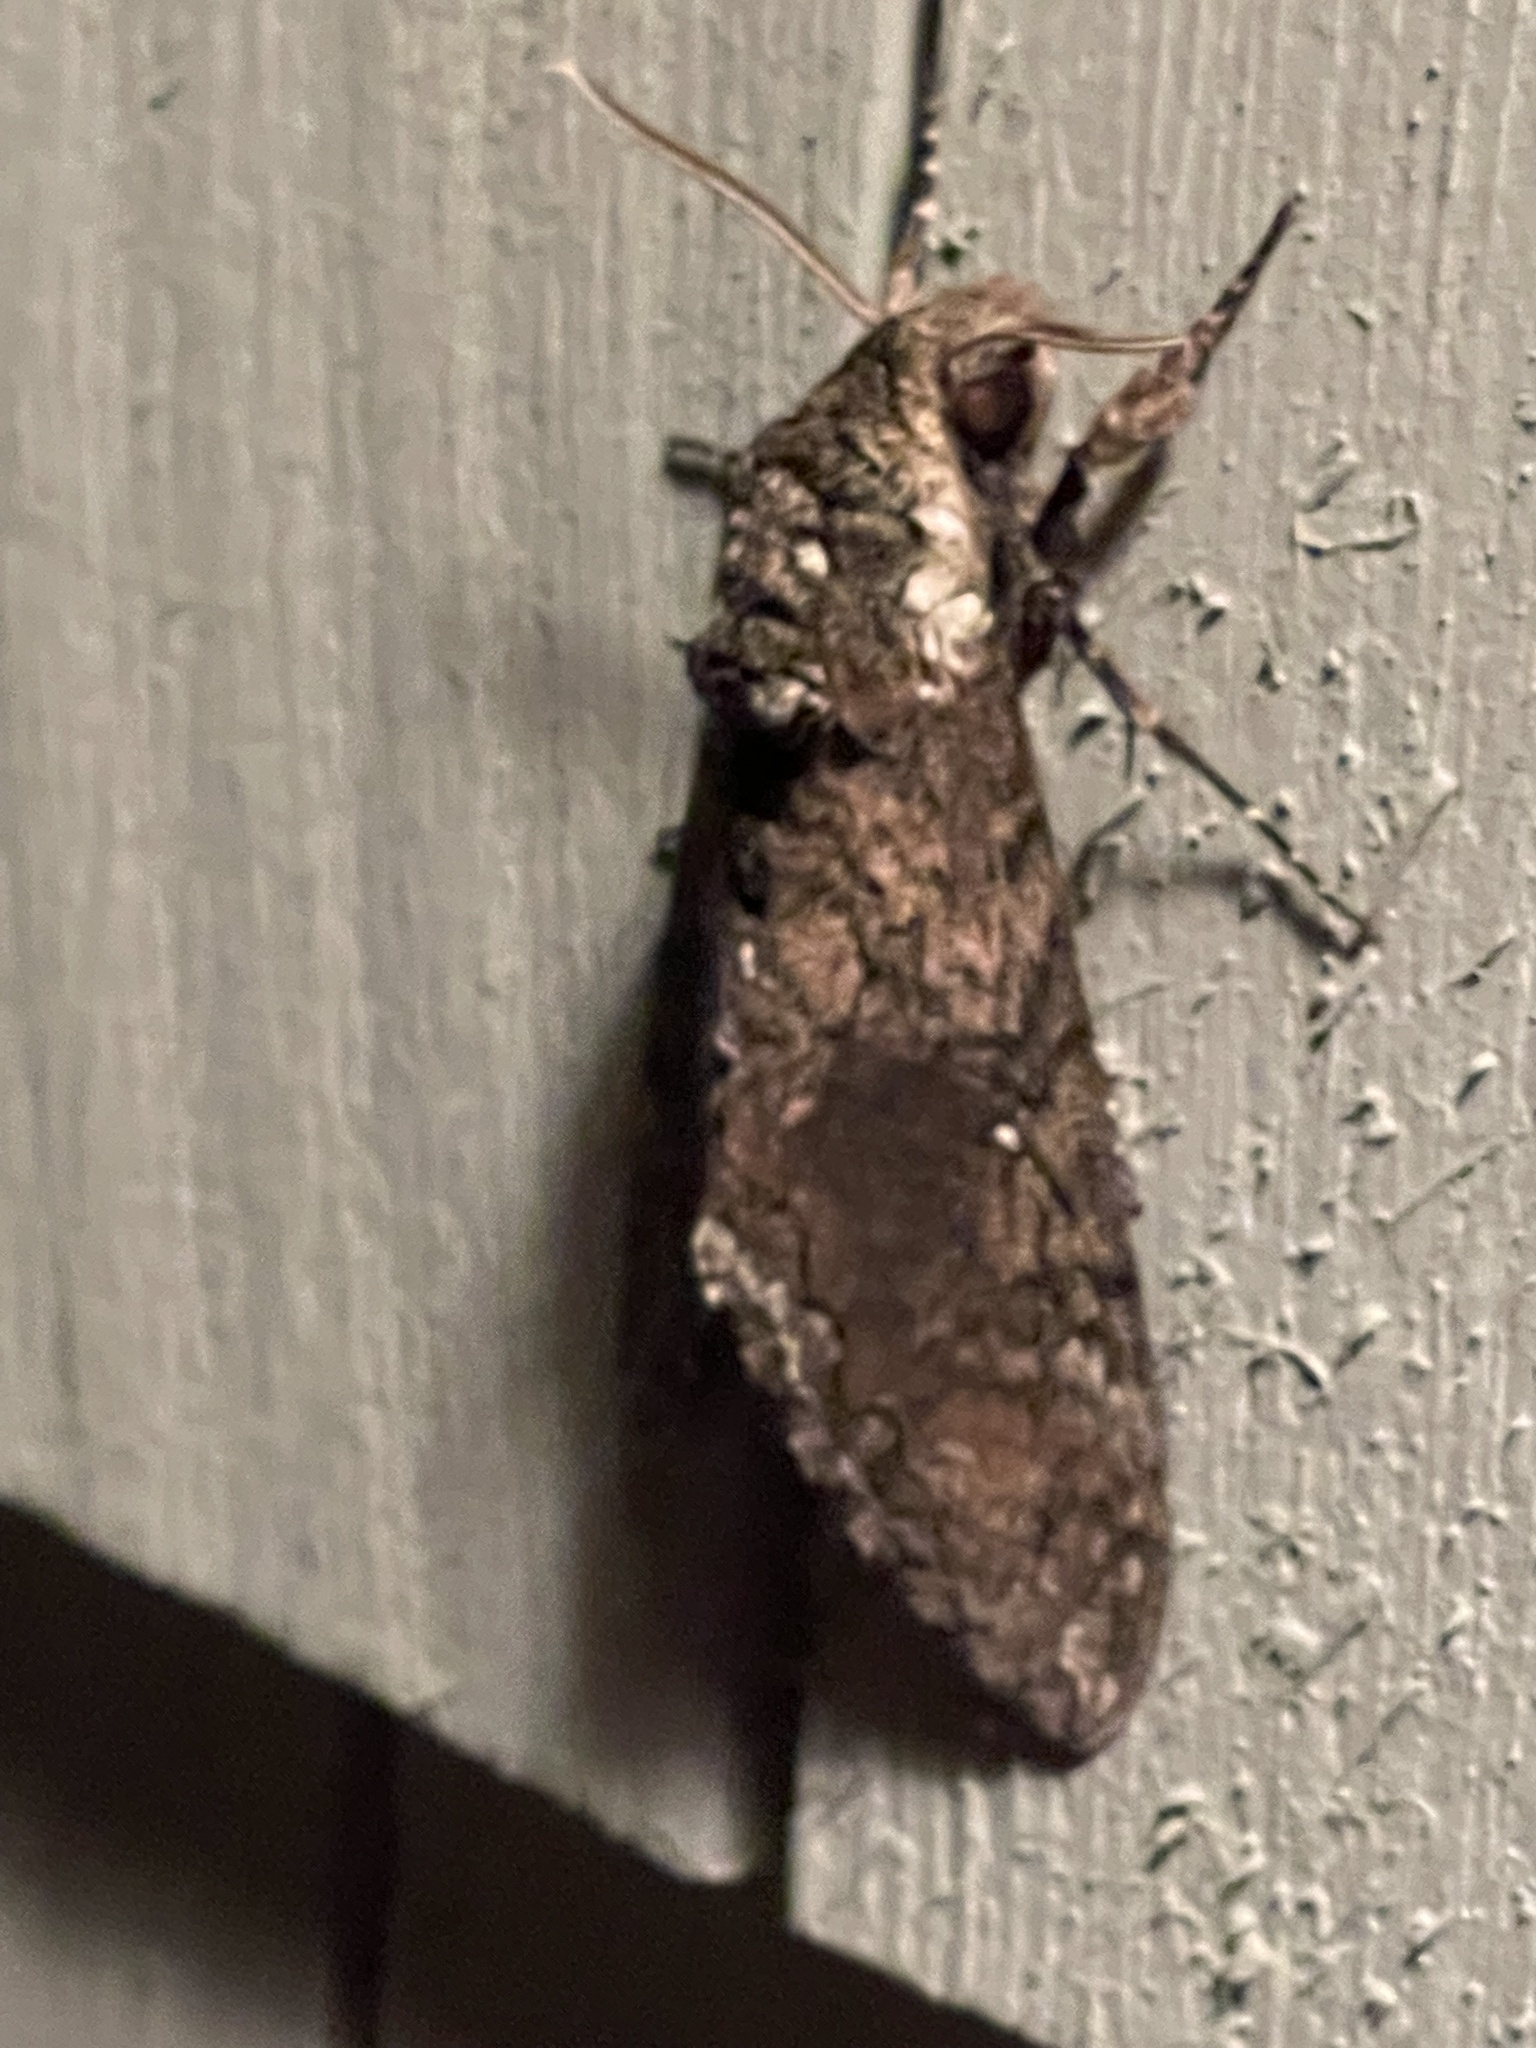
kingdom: Animalia
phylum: Arthropoda
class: Insecta
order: Lepidoptera
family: Sphingidae
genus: Manduca
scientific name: Manduca sexta
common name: Carolina sphinx
